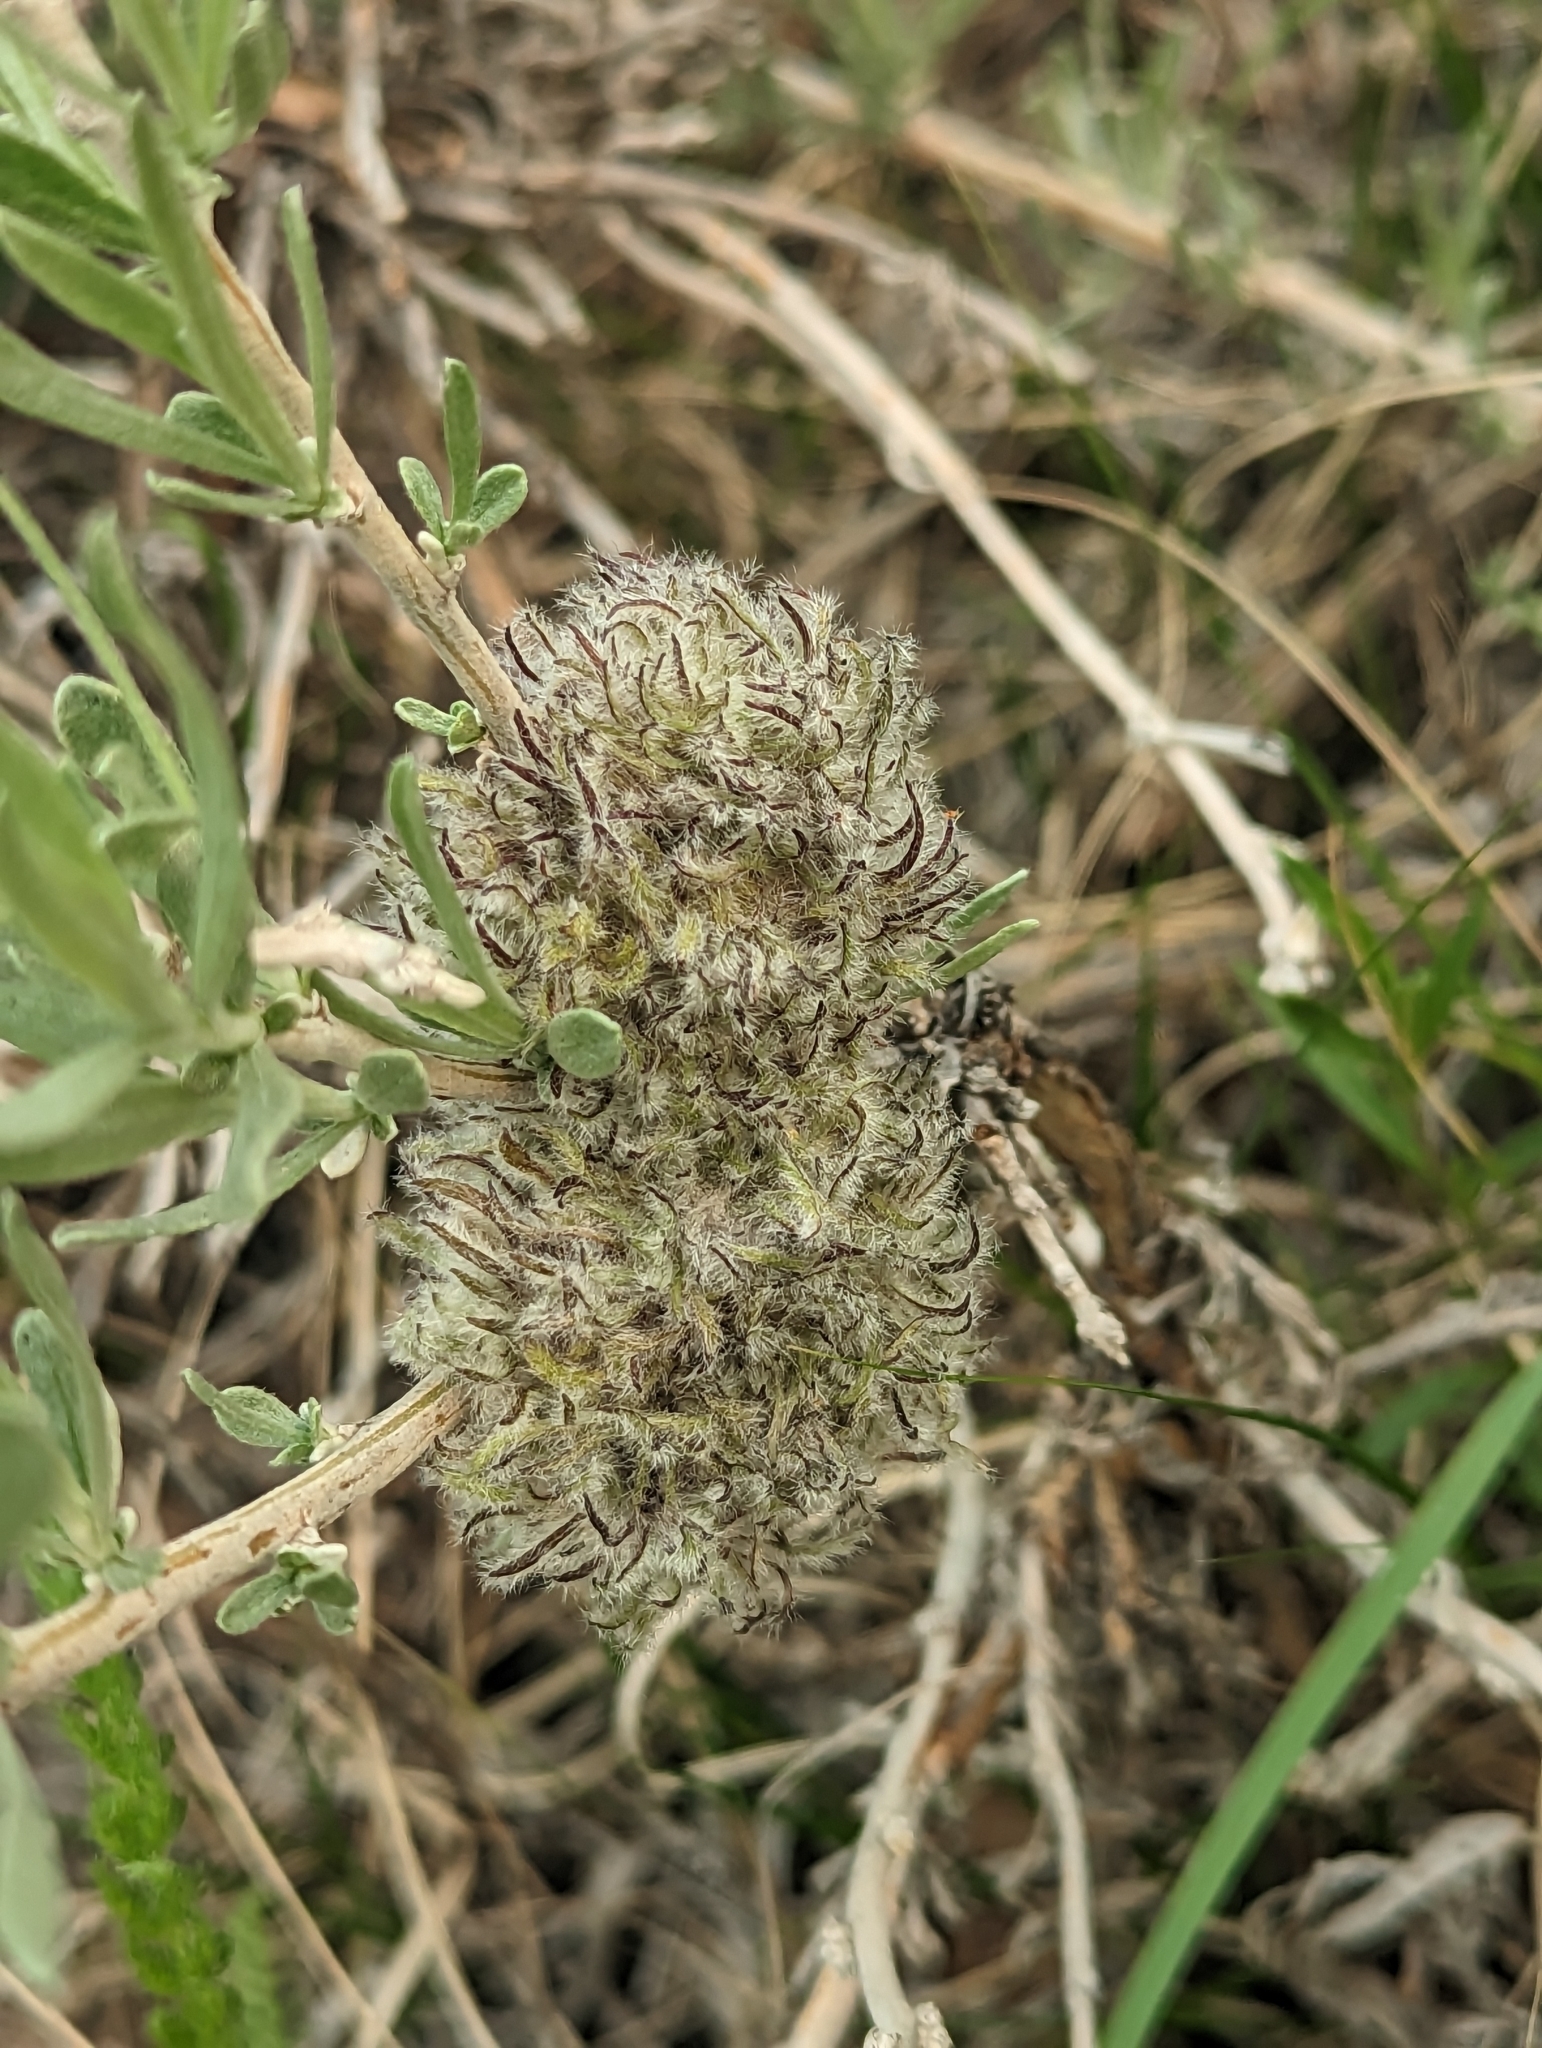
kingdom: Animalia
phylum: Arthropoda
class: Insecta
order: Diptera
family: Cecidomyiidae
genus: Rhopalomyia
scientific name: Rhopalomyia medusirrasa
